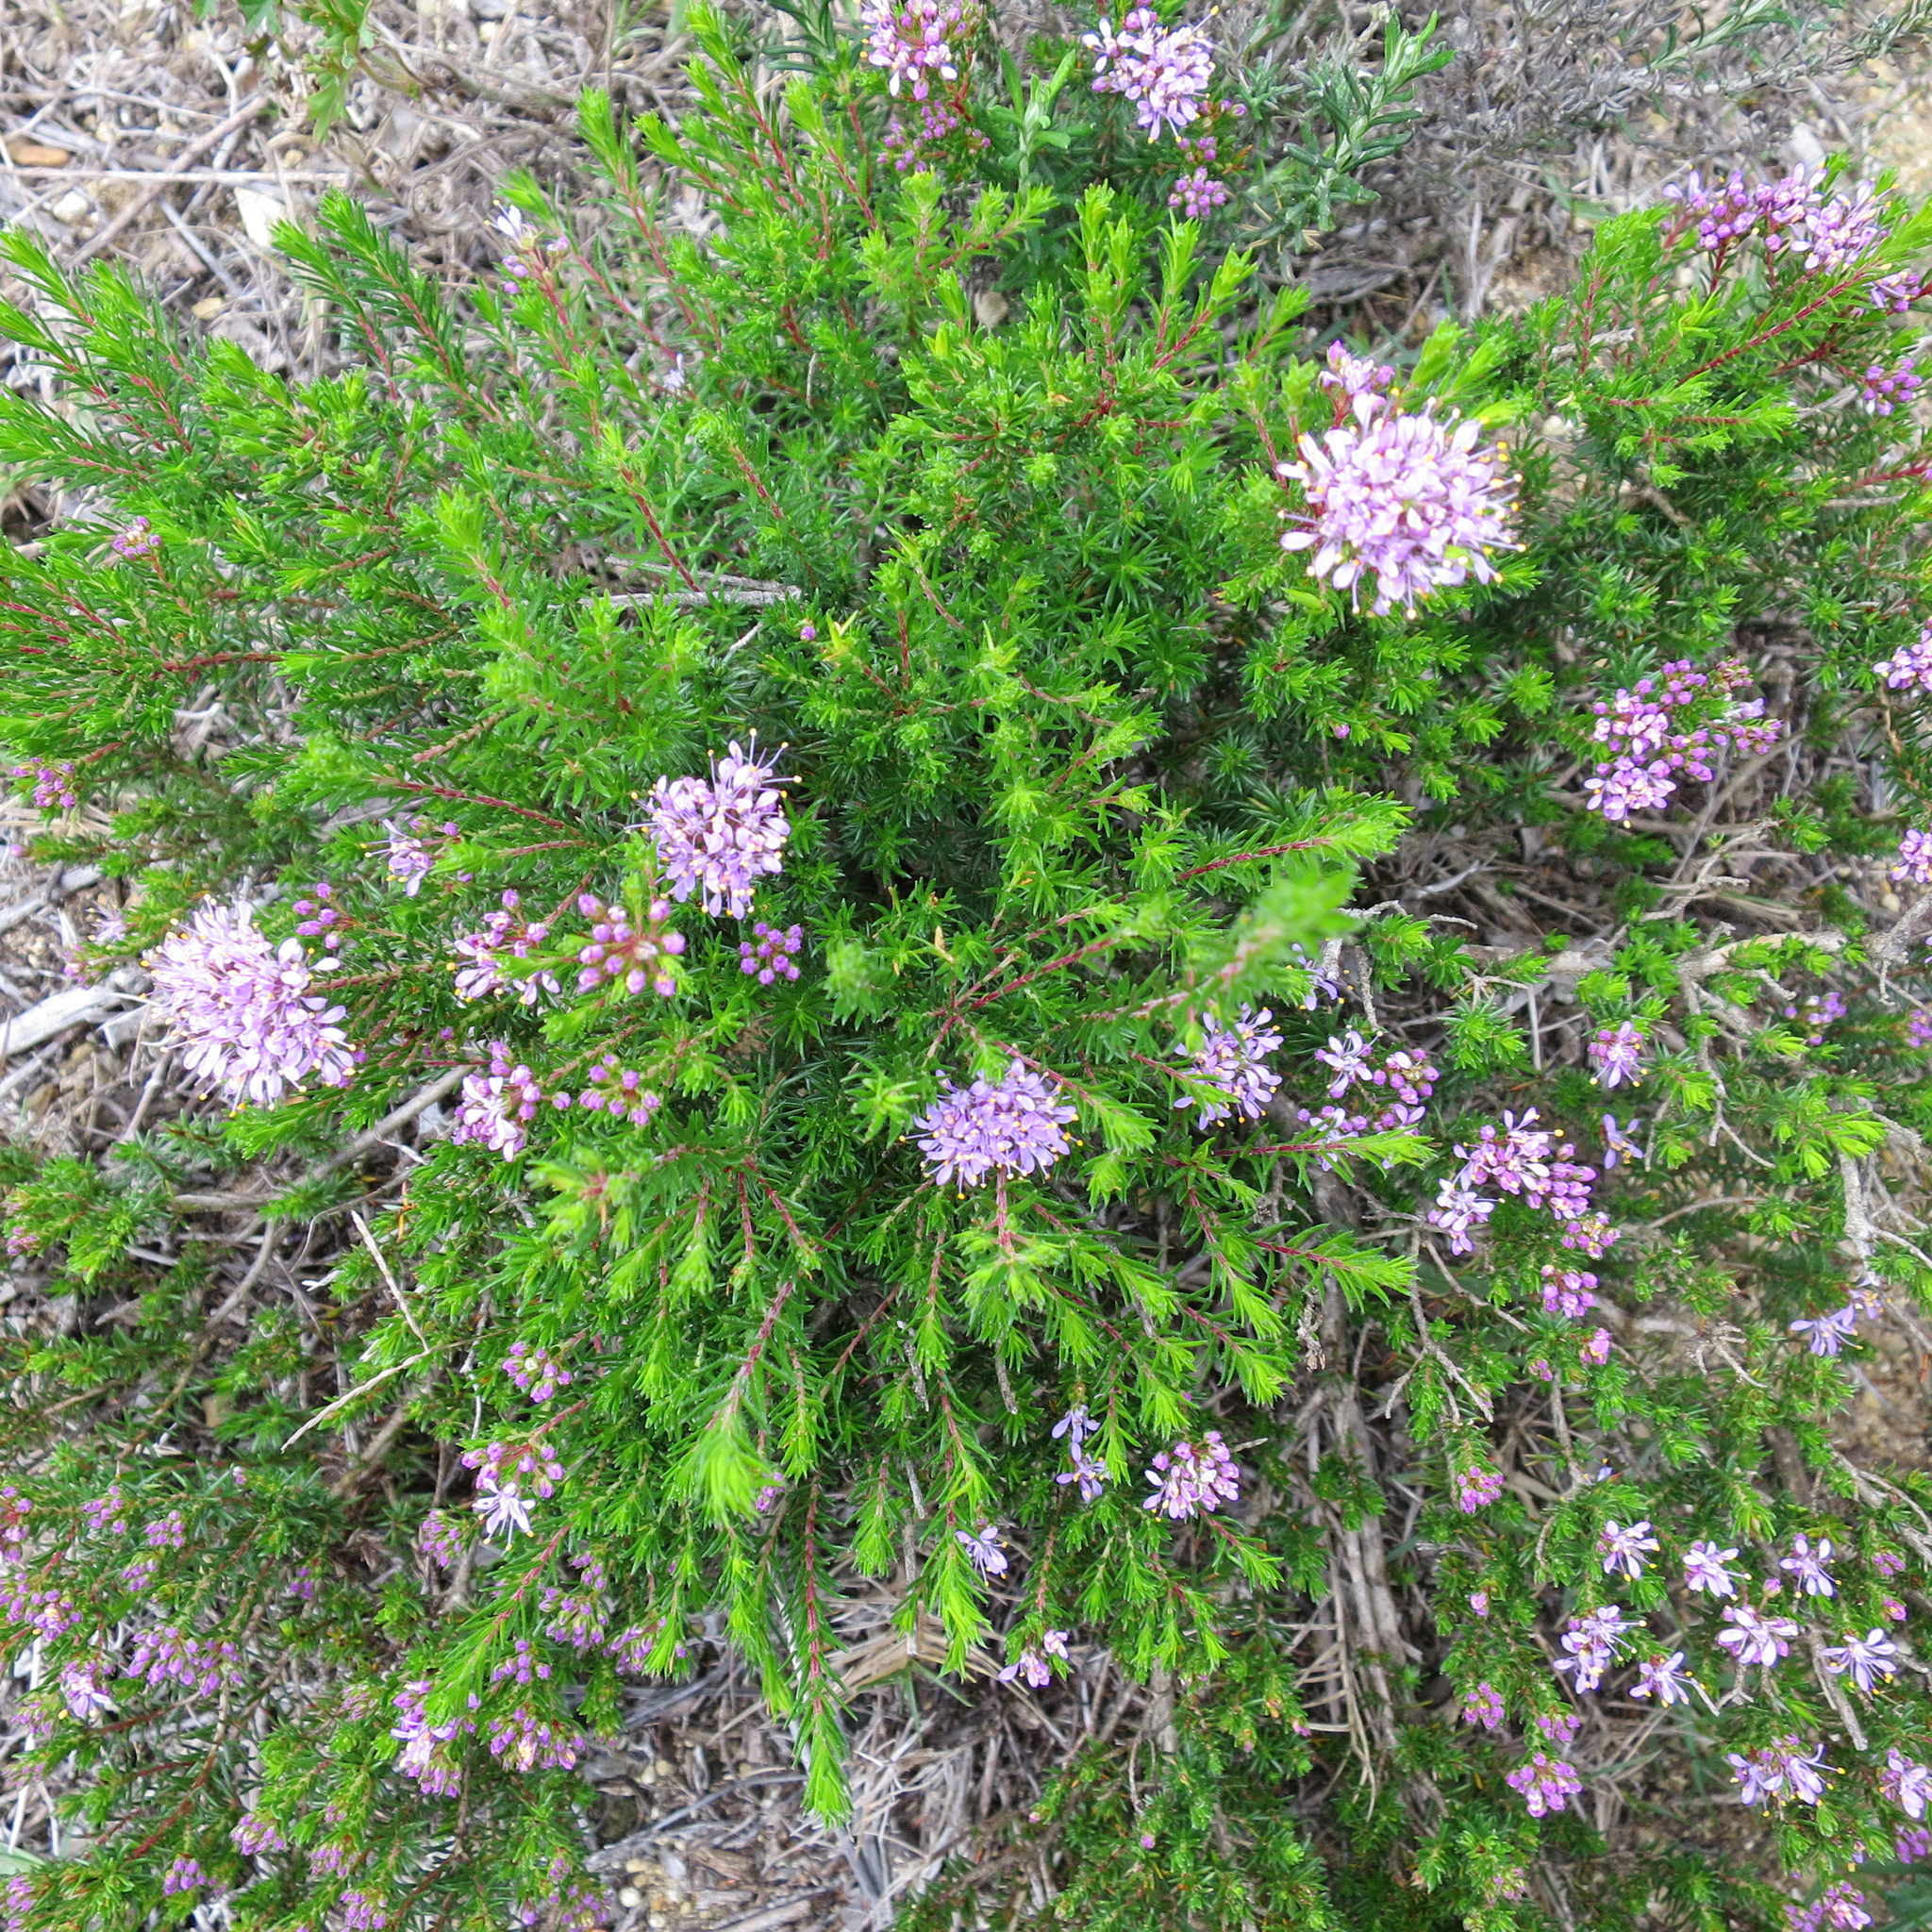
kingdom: Plantae
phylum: Tracheophyta
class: Magnoliopsida
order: Sapindales
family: Rutaceae
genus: Agathosma
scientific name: Agathosma serpyllacea
